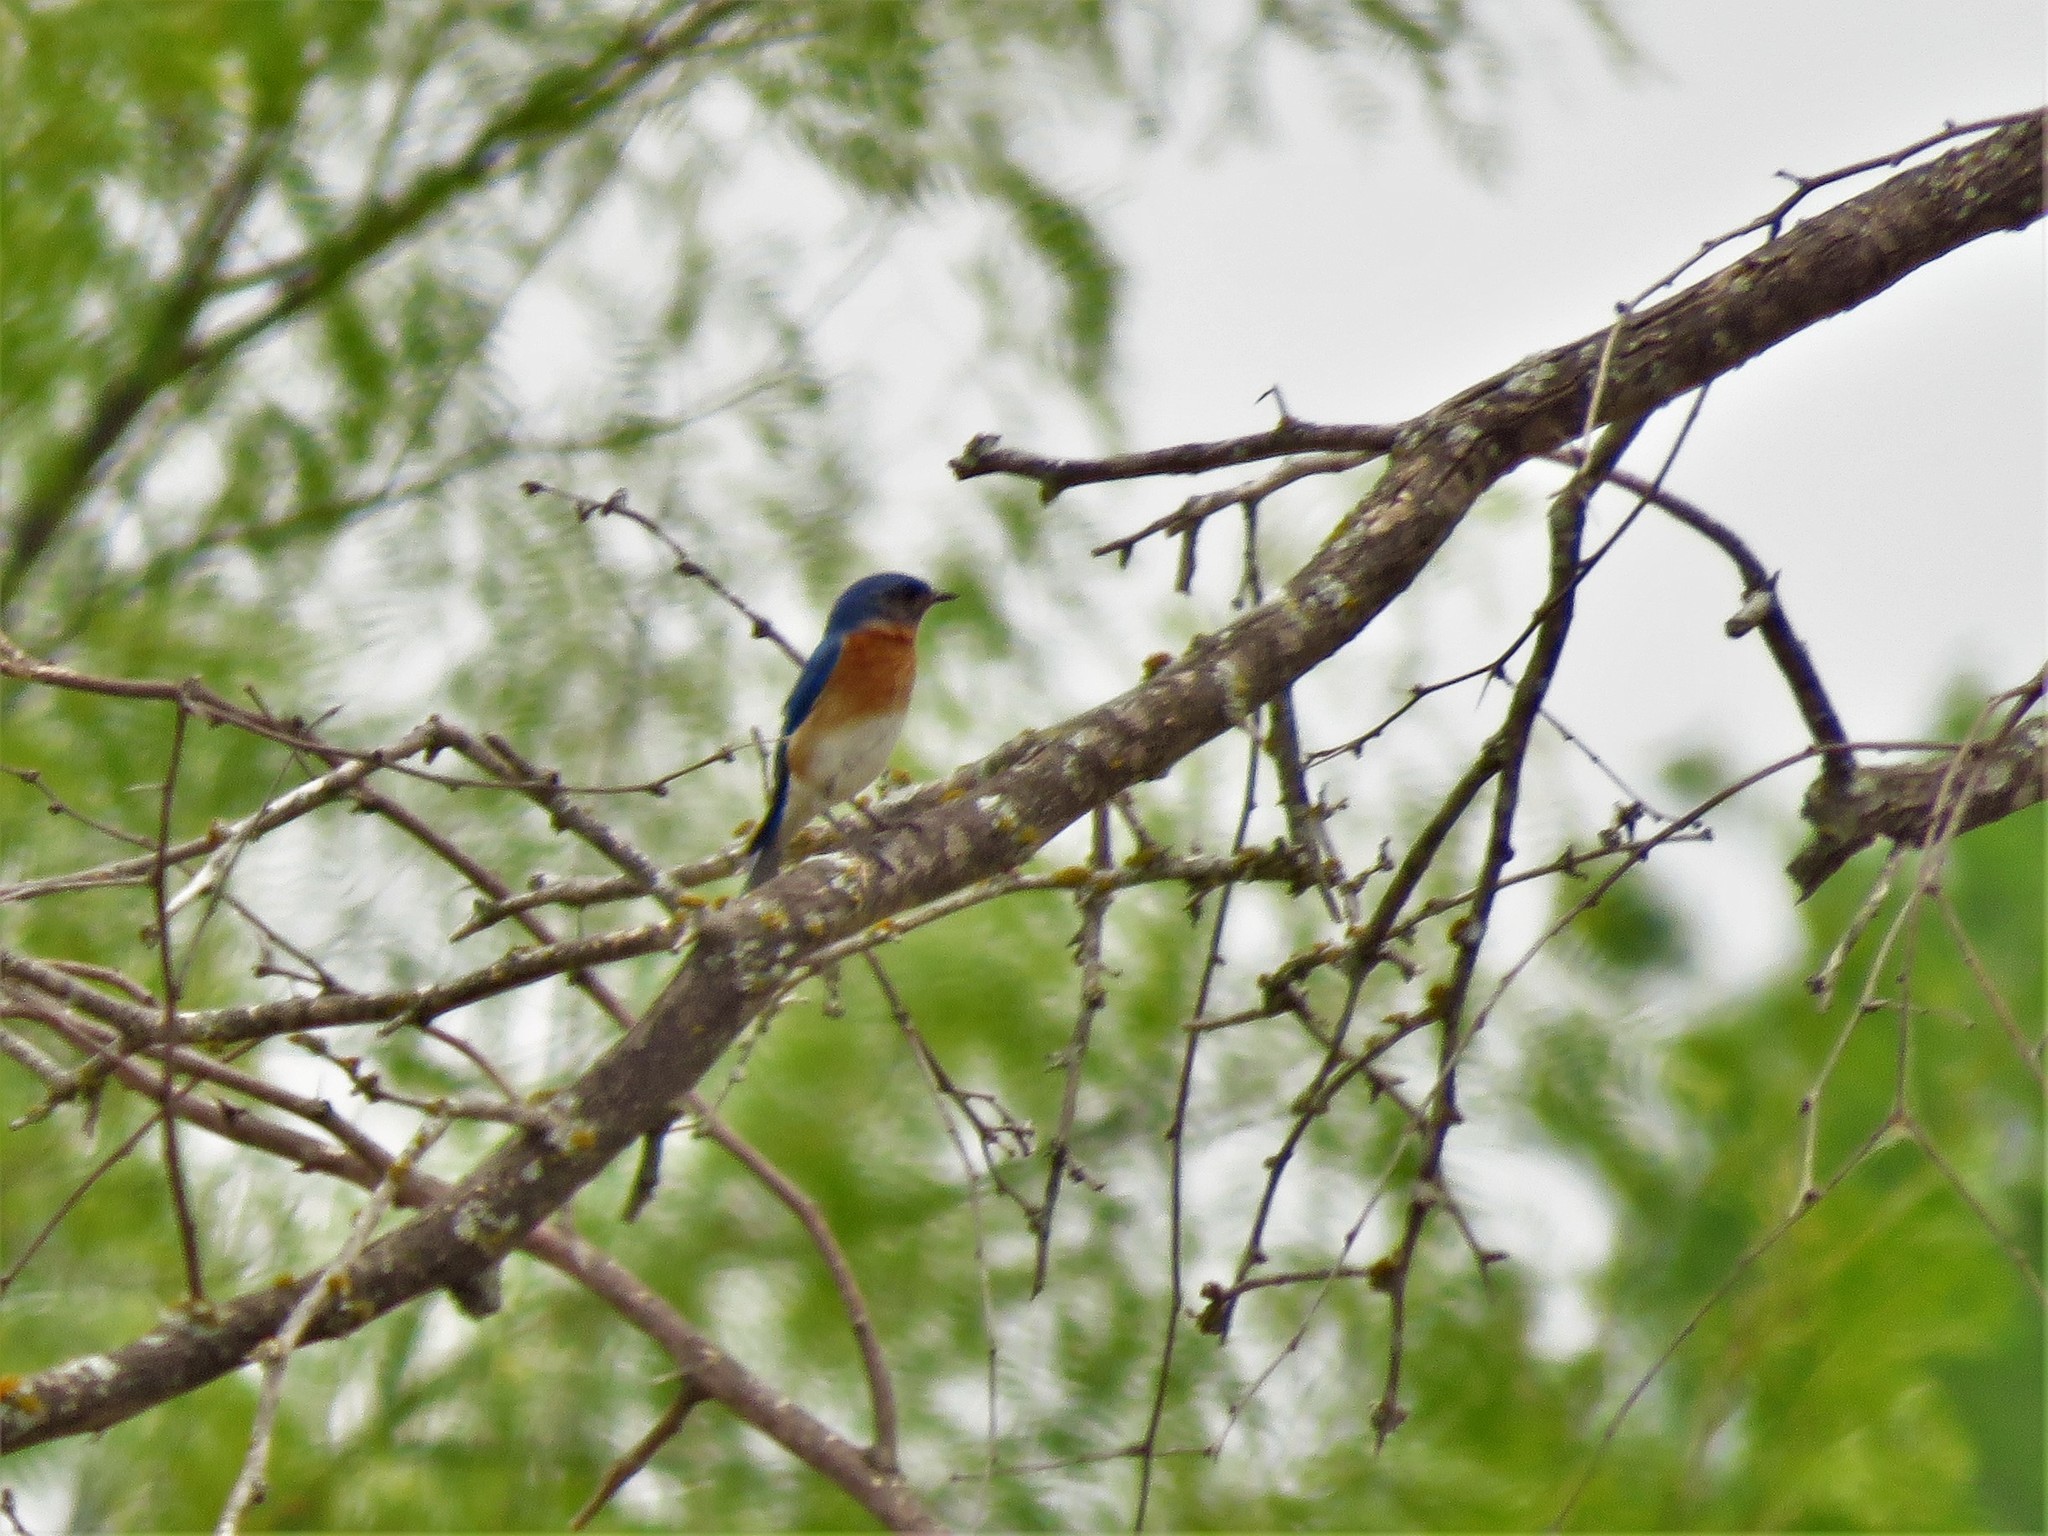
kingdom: Animalia
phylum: Chordata
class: Aves
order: Passeriformes
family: Turdidae
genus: Sialia
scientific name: Sialia sialis
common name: Eastern bluebird
